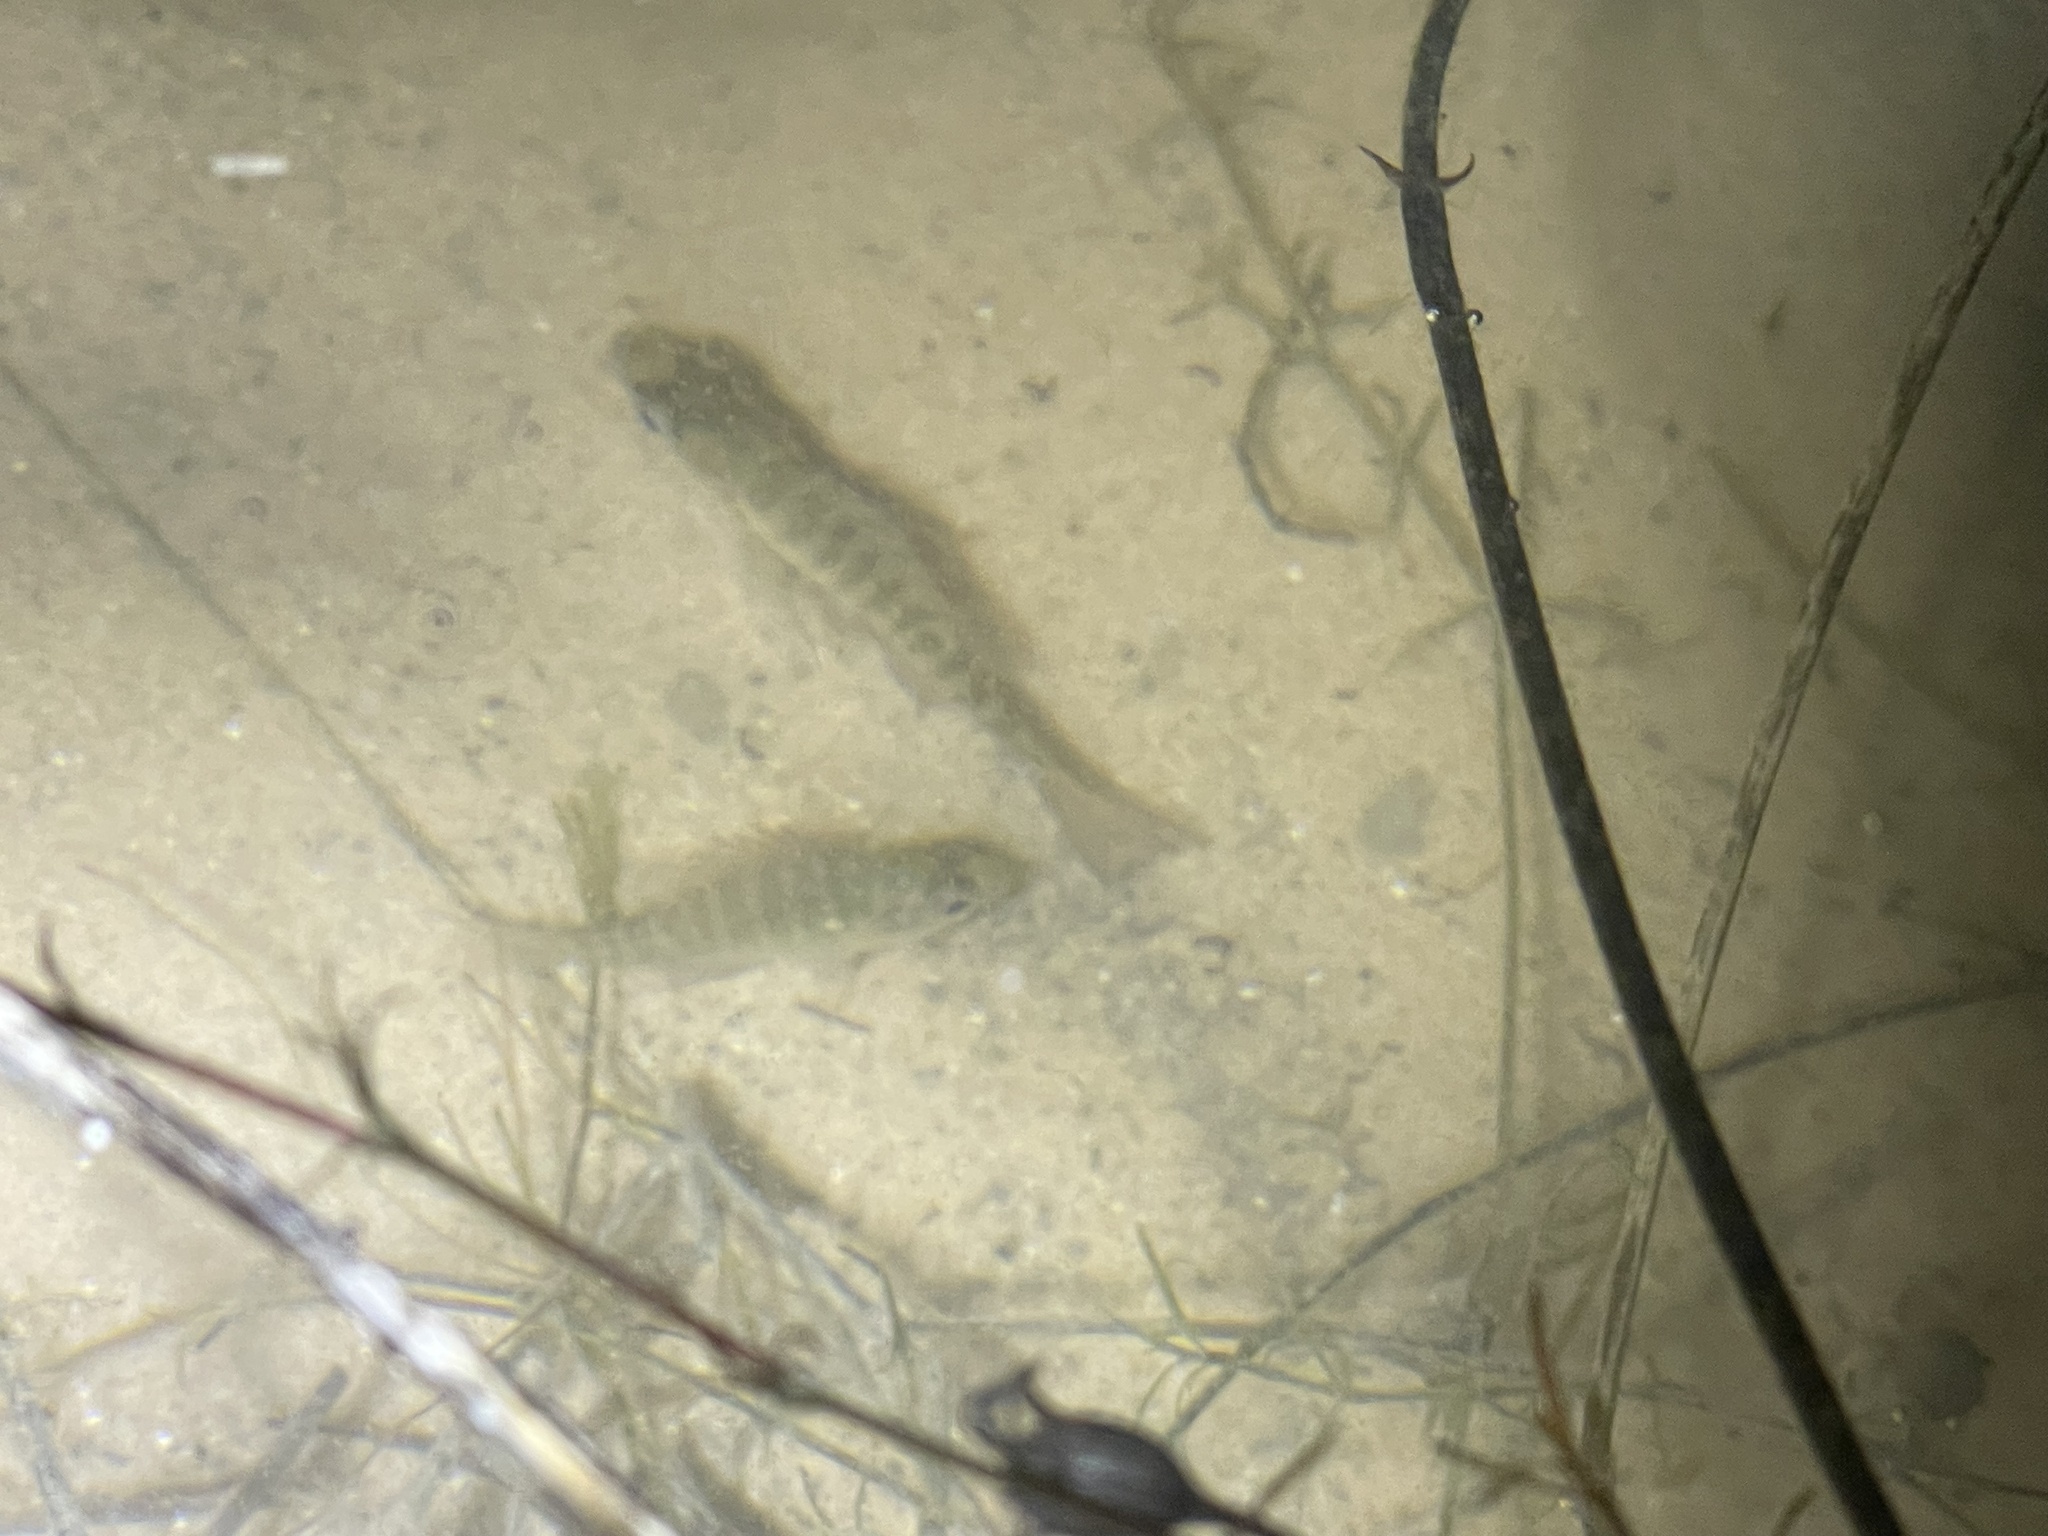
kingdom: Animalia
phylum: Chordata
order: Perciformes
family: Centrarchidae
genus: Lepomis
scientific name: Lepomis macrochirus
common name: Bluegill
